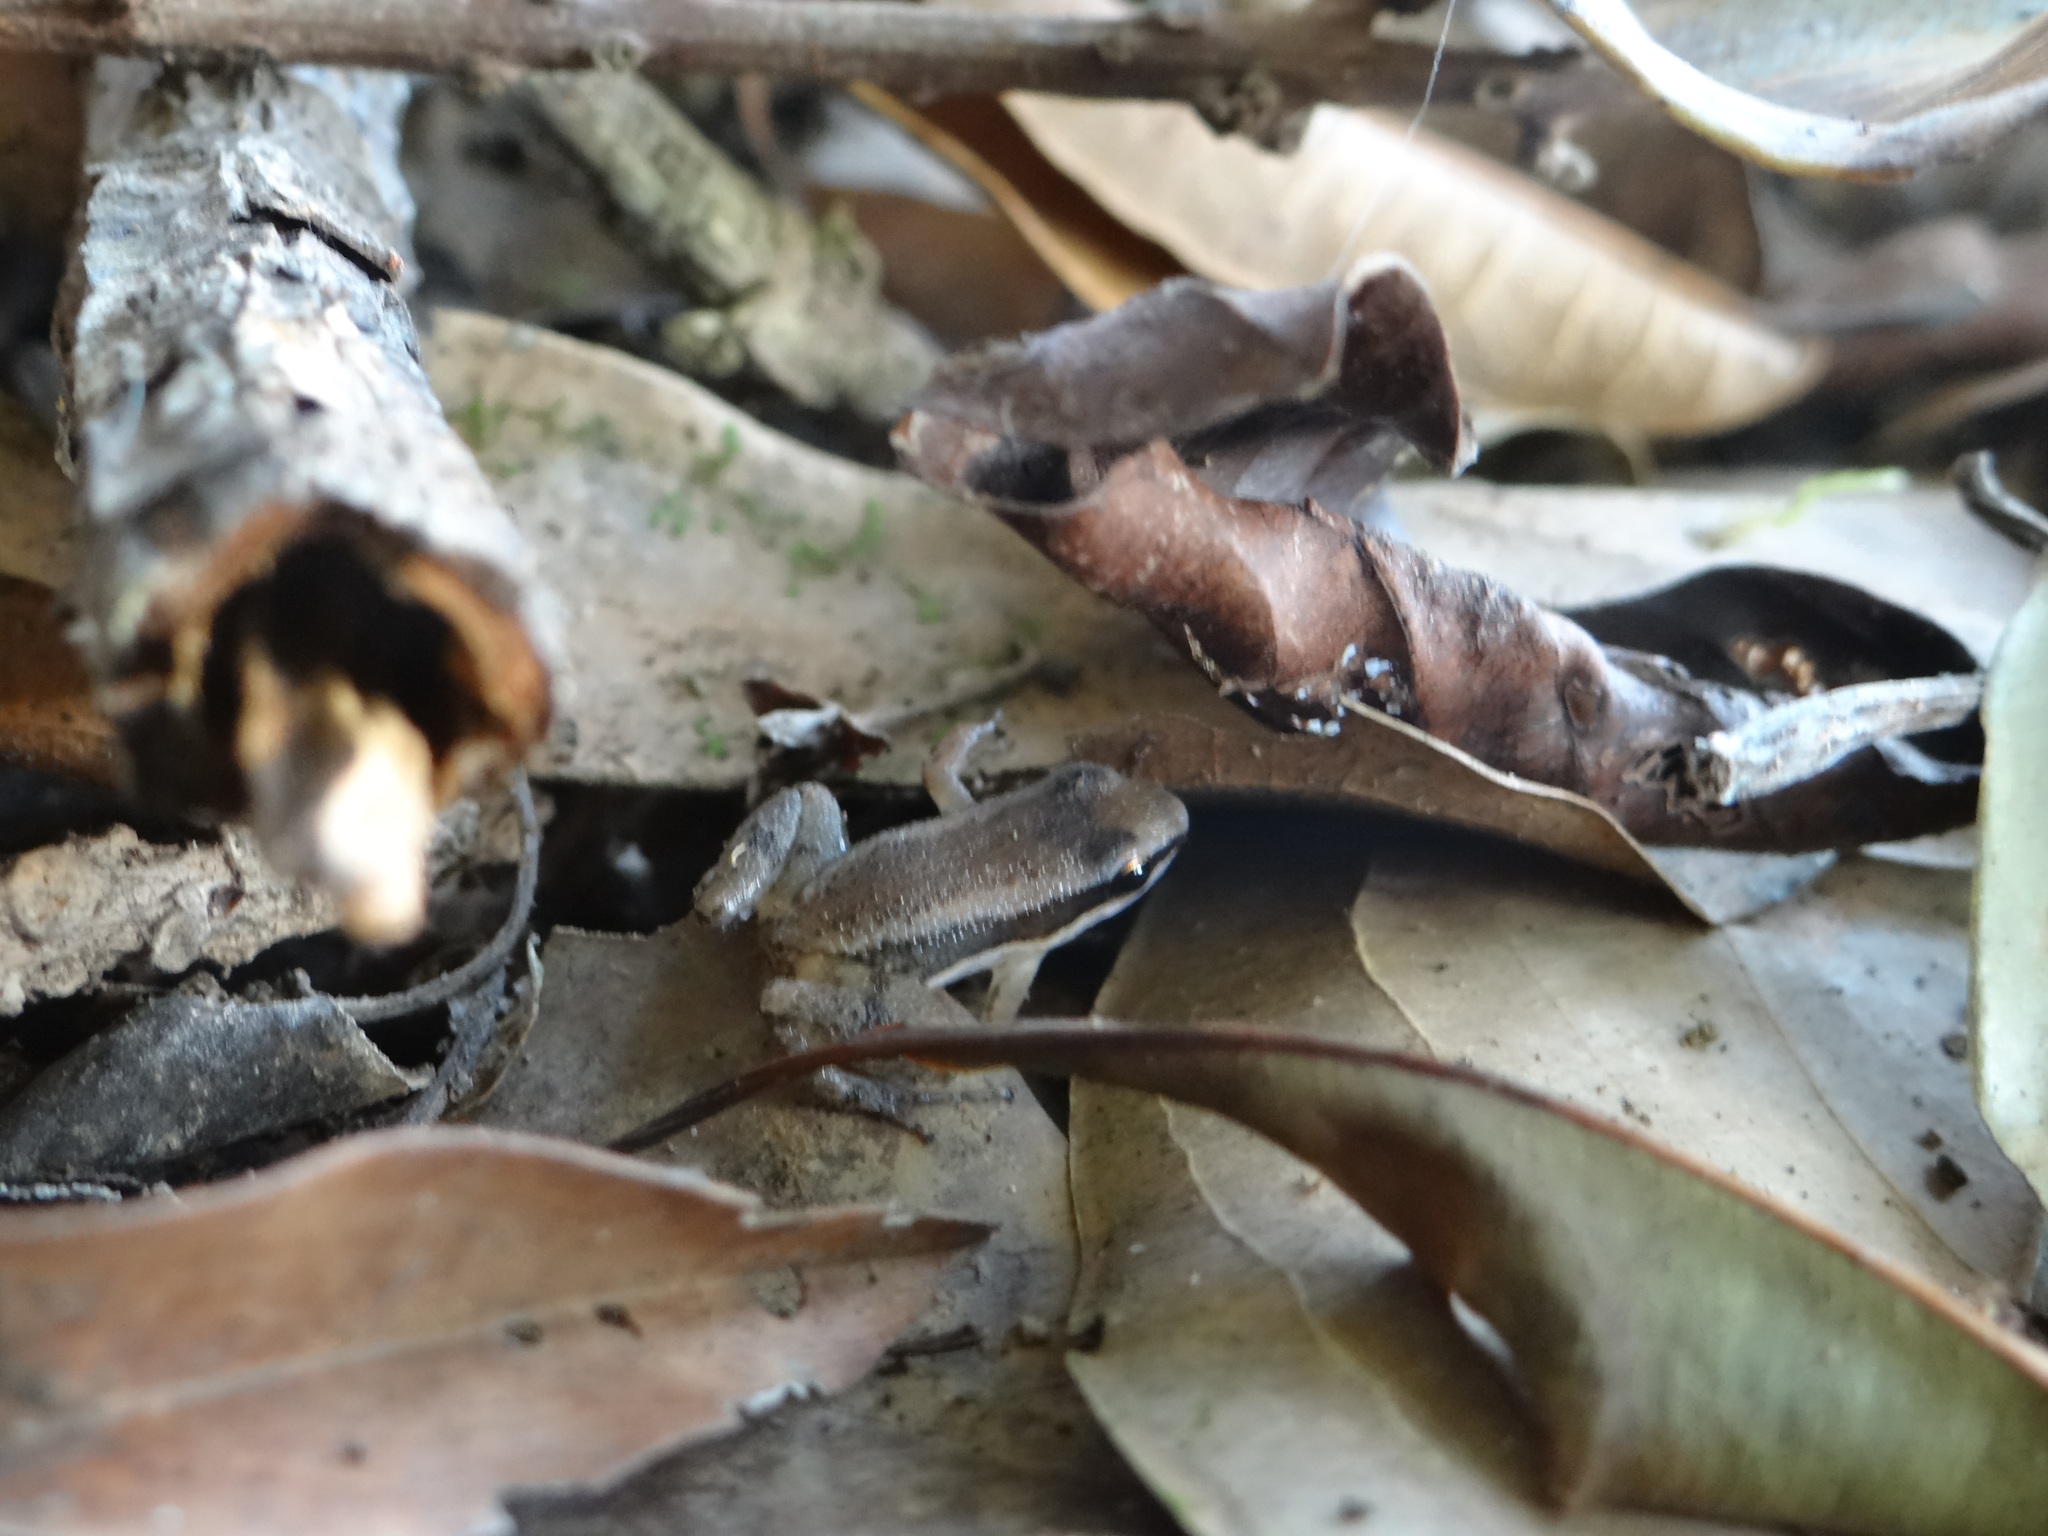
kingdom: Animalia
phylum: Chordata
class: Amphibia
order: Anura
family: Aromobatidae
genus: Allobates
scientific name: Allobates trilineatus
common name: Three-striped rocket frog
